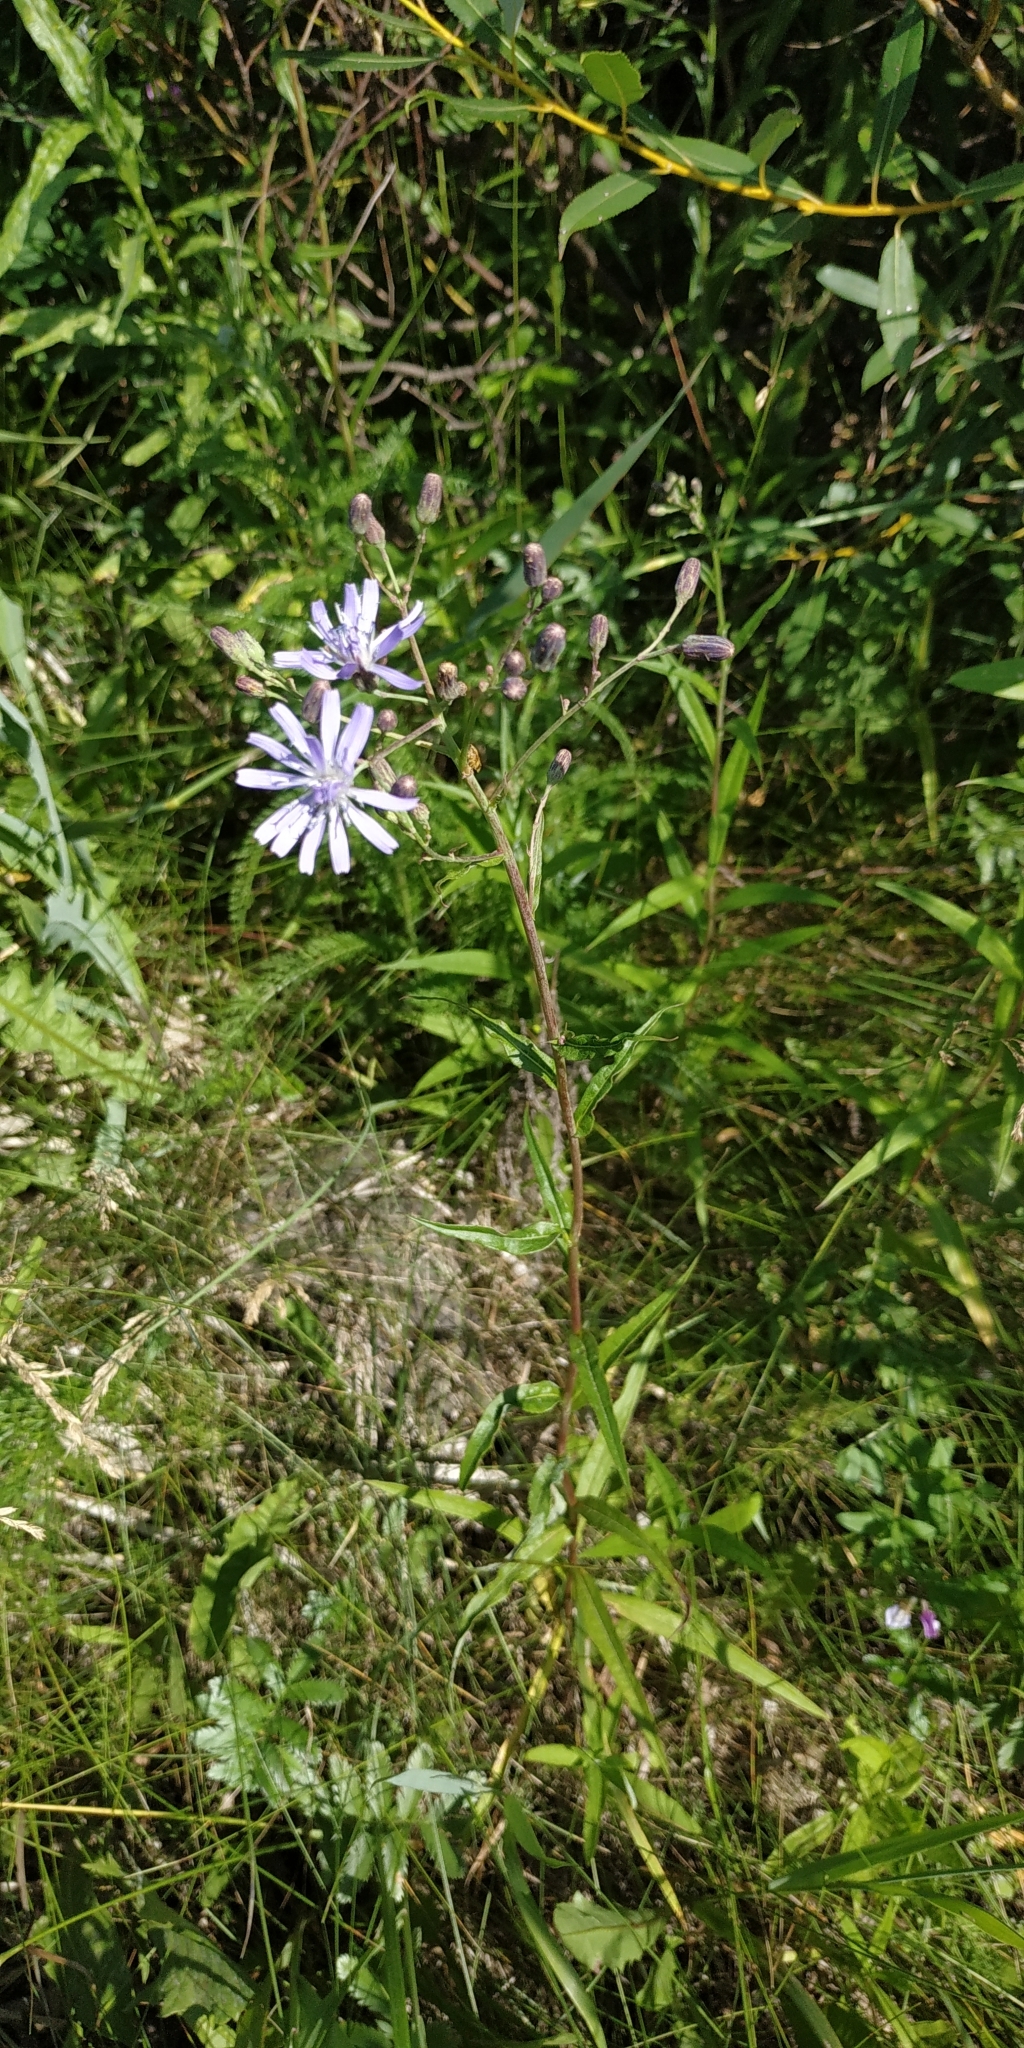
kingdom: Plantae
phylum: Tracheophyta
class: Magnoliopsida
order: Asterales
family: Asteraceae
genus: Lactuca
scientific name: Lactuca sibirica
